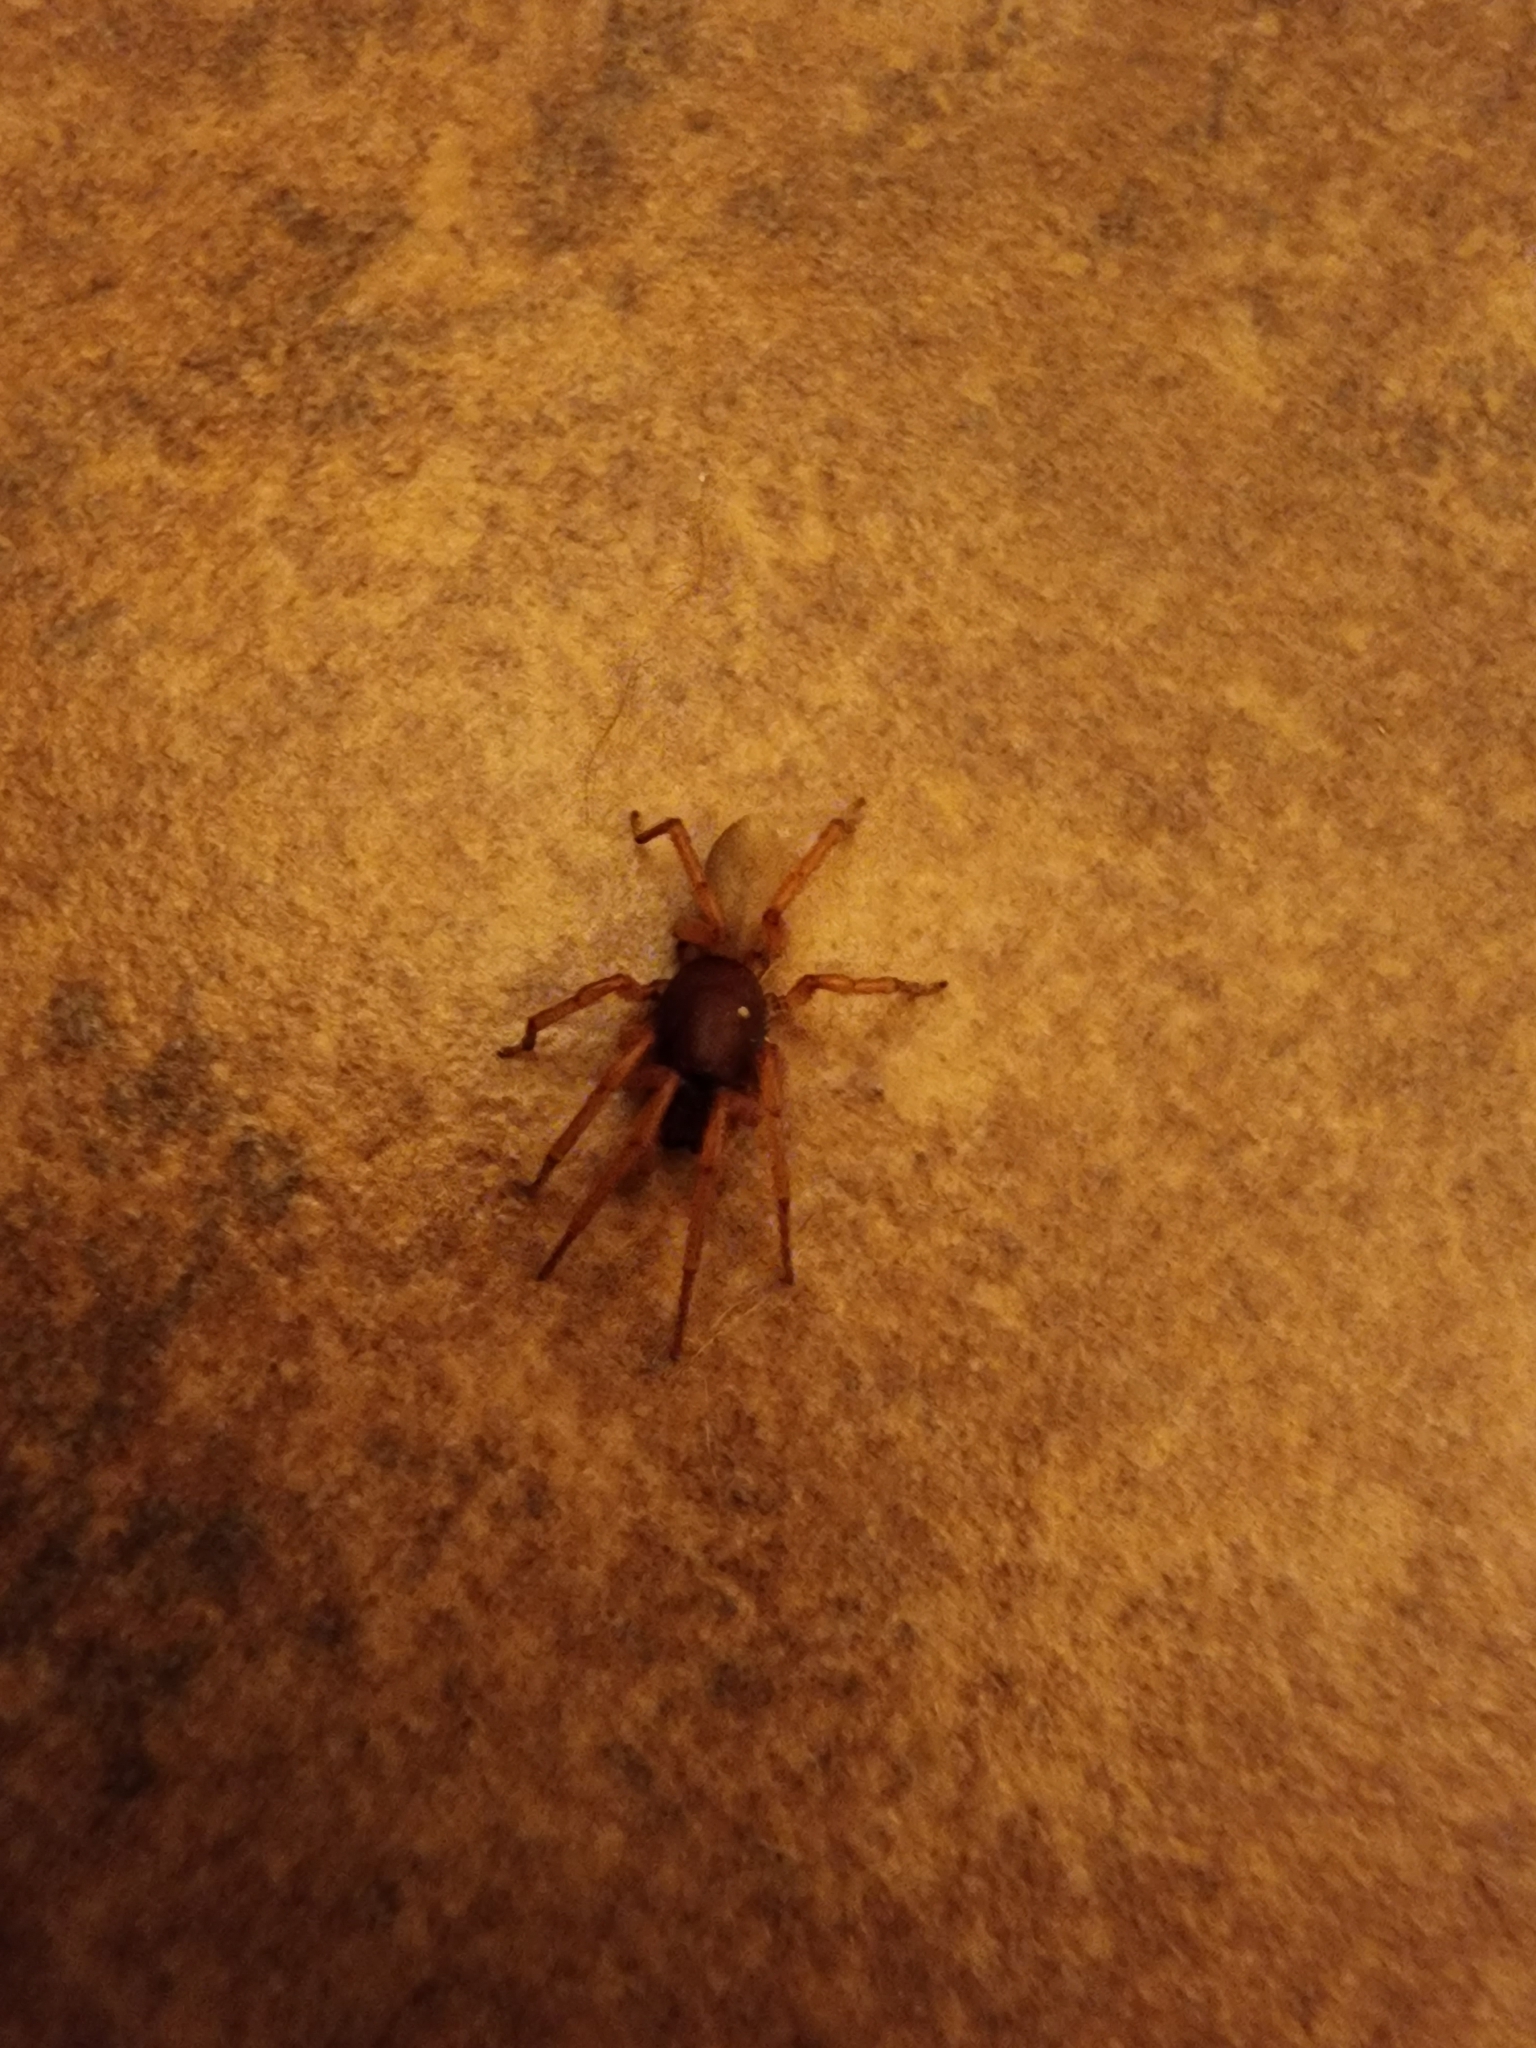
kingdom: Animalia
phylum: Arthropoda
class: Arachnida
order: Araneae
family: Dysderidae
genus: Dysdera
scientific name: Dysdera crocata
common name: Woodlouse spider
